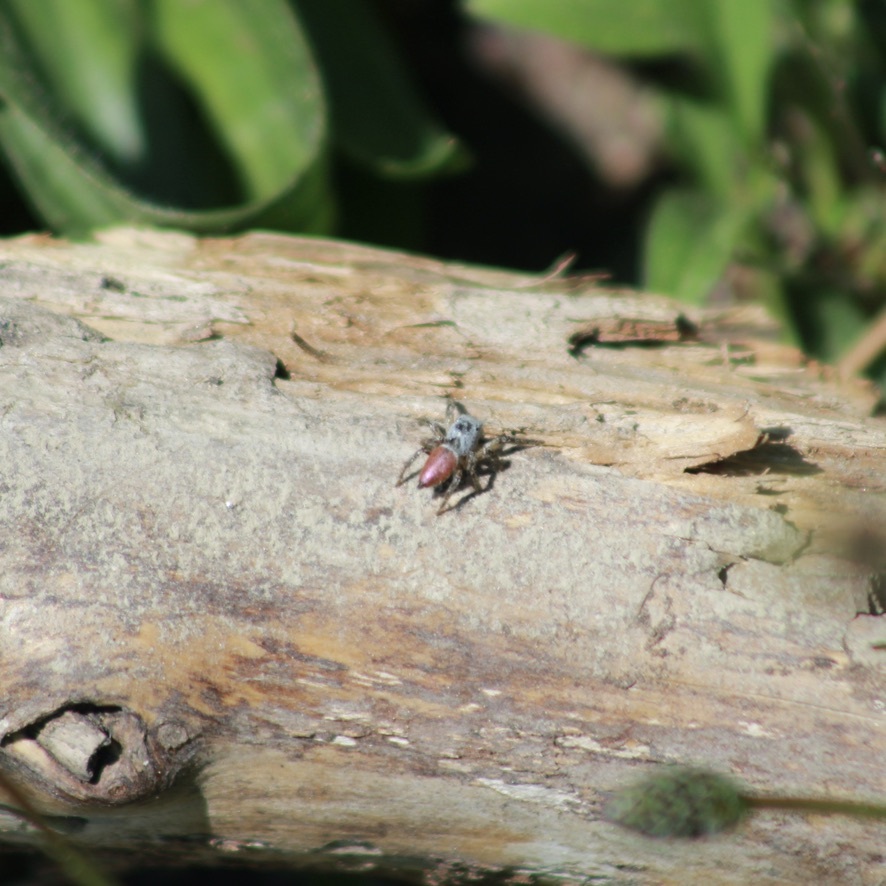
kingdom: Animalia
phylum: Arthropoda
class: Arachnida
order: Araneae
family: Salticidae
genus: Habronattus
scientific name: Habronattus decorus
